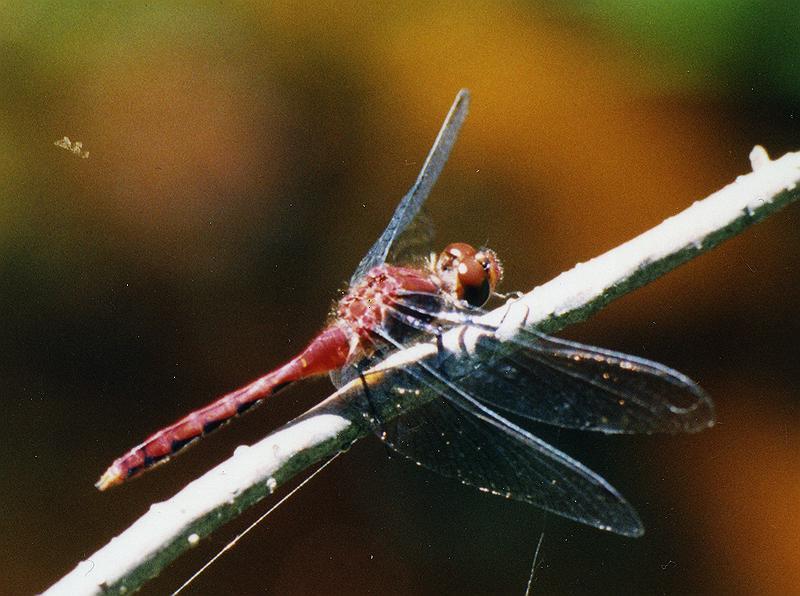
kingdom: Animalia
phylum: Arthropoda
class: Insecta
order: Odonata
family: Libellulidae
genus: Sympetrum
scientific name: Sympetrum obtrusum
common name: White-faced meadowhawk
